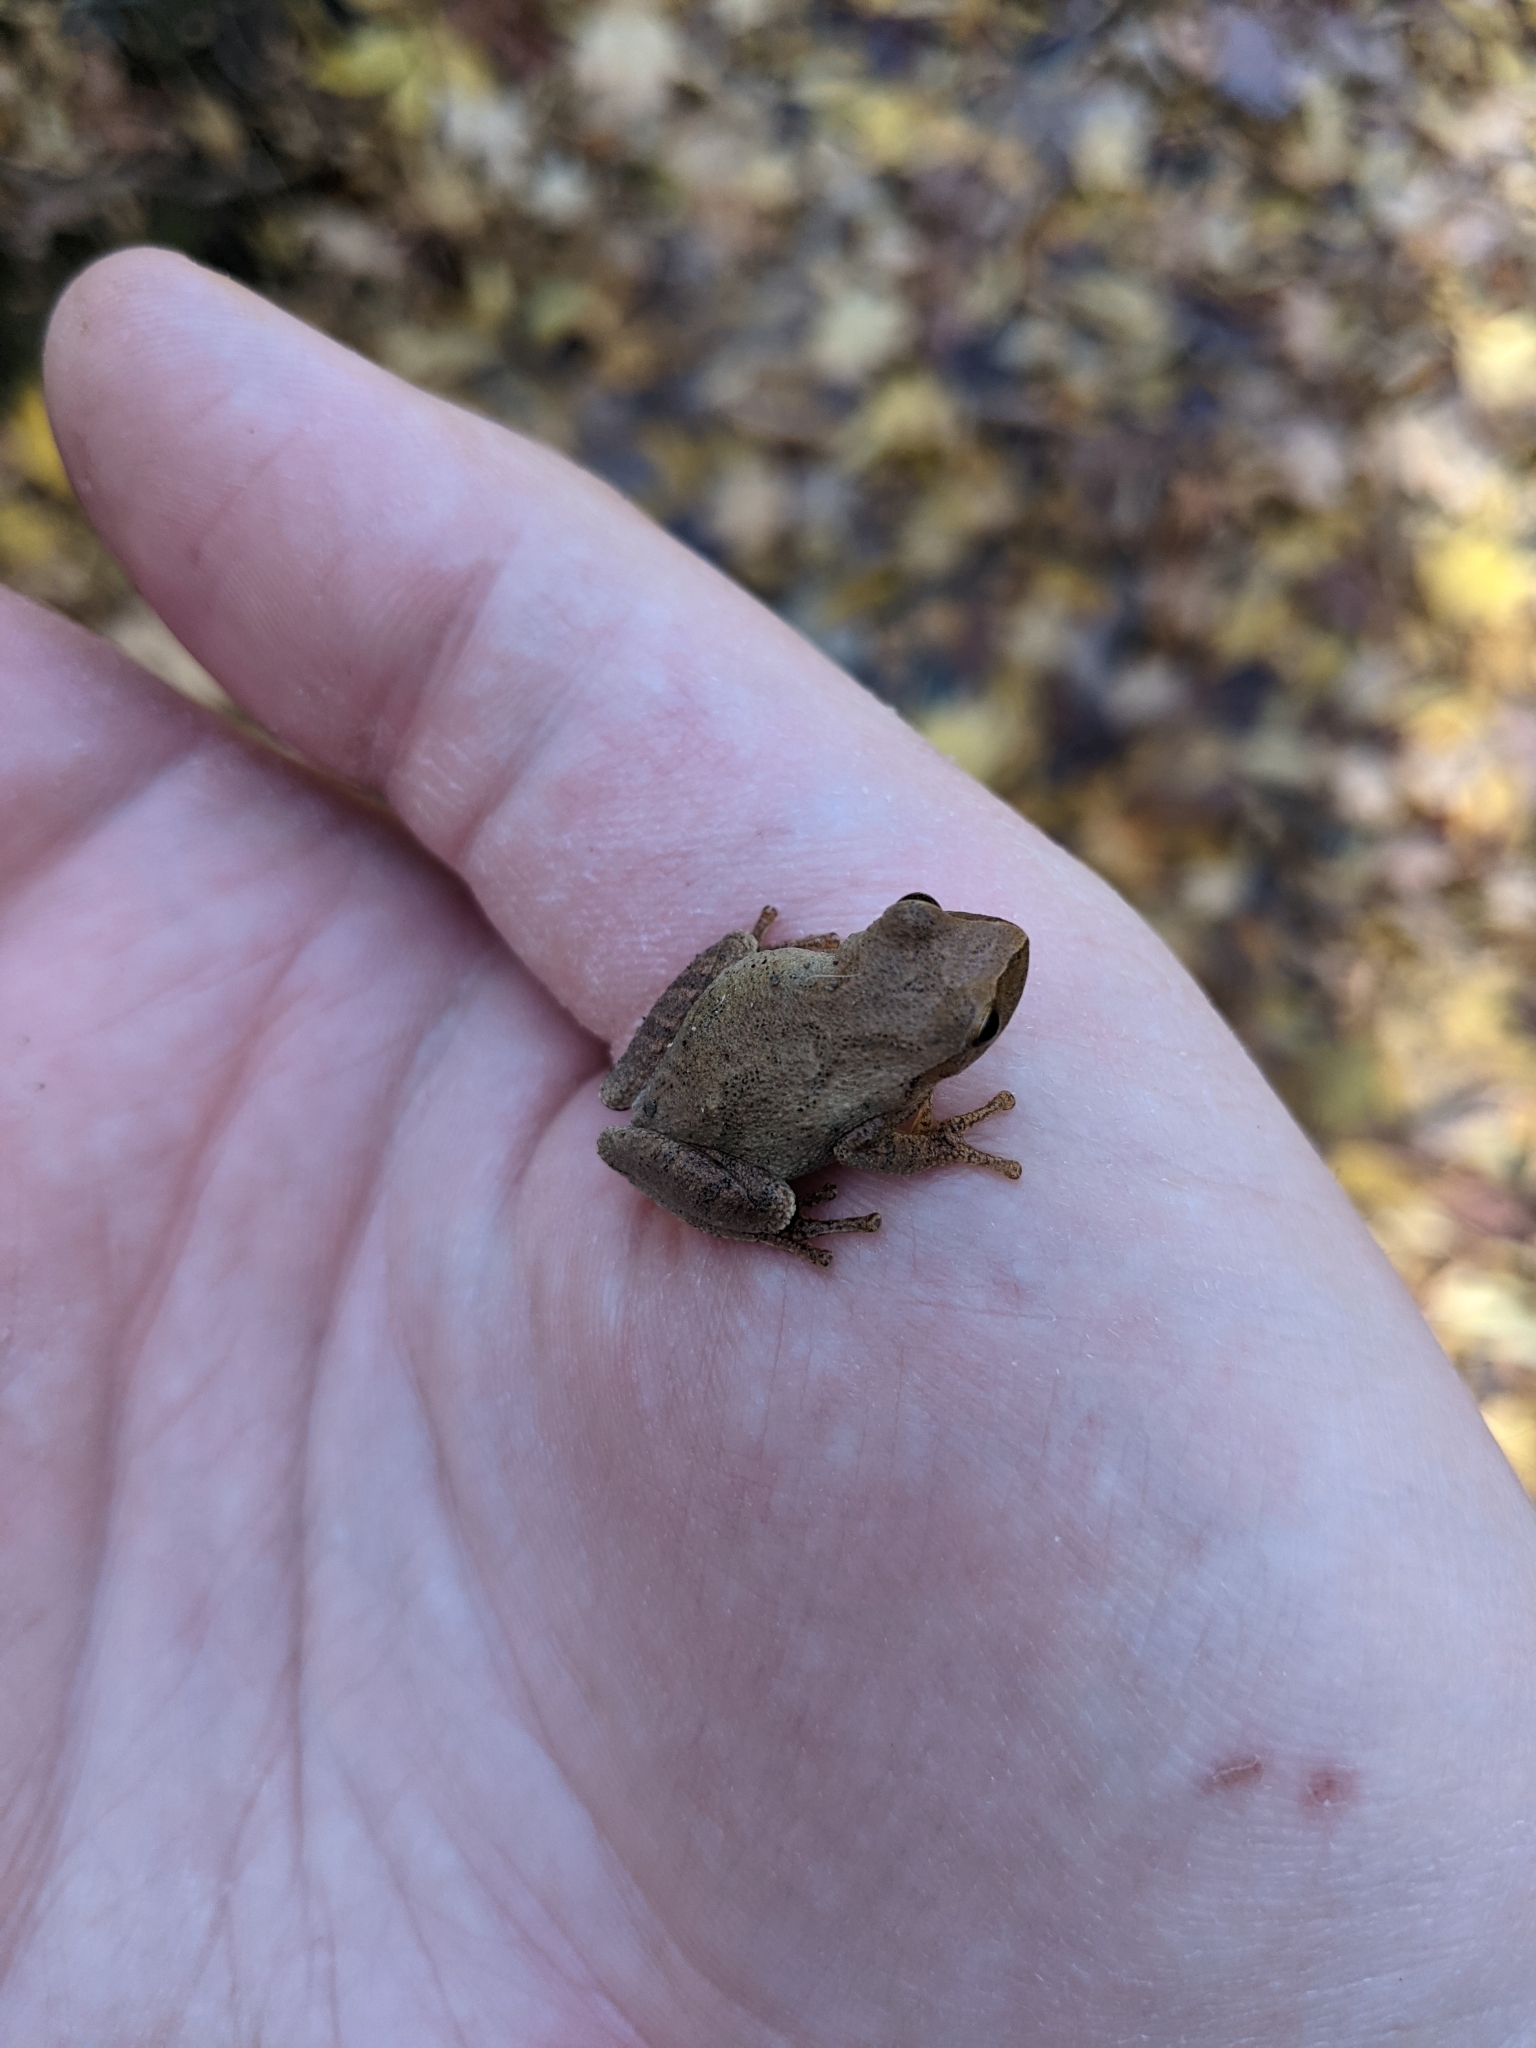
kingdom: Animalia
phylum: Chordata
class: Amphibia
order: Anura
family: Hylidae
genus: Pseudacris
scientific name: Pseudacris crucifer
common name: Spring peeper
